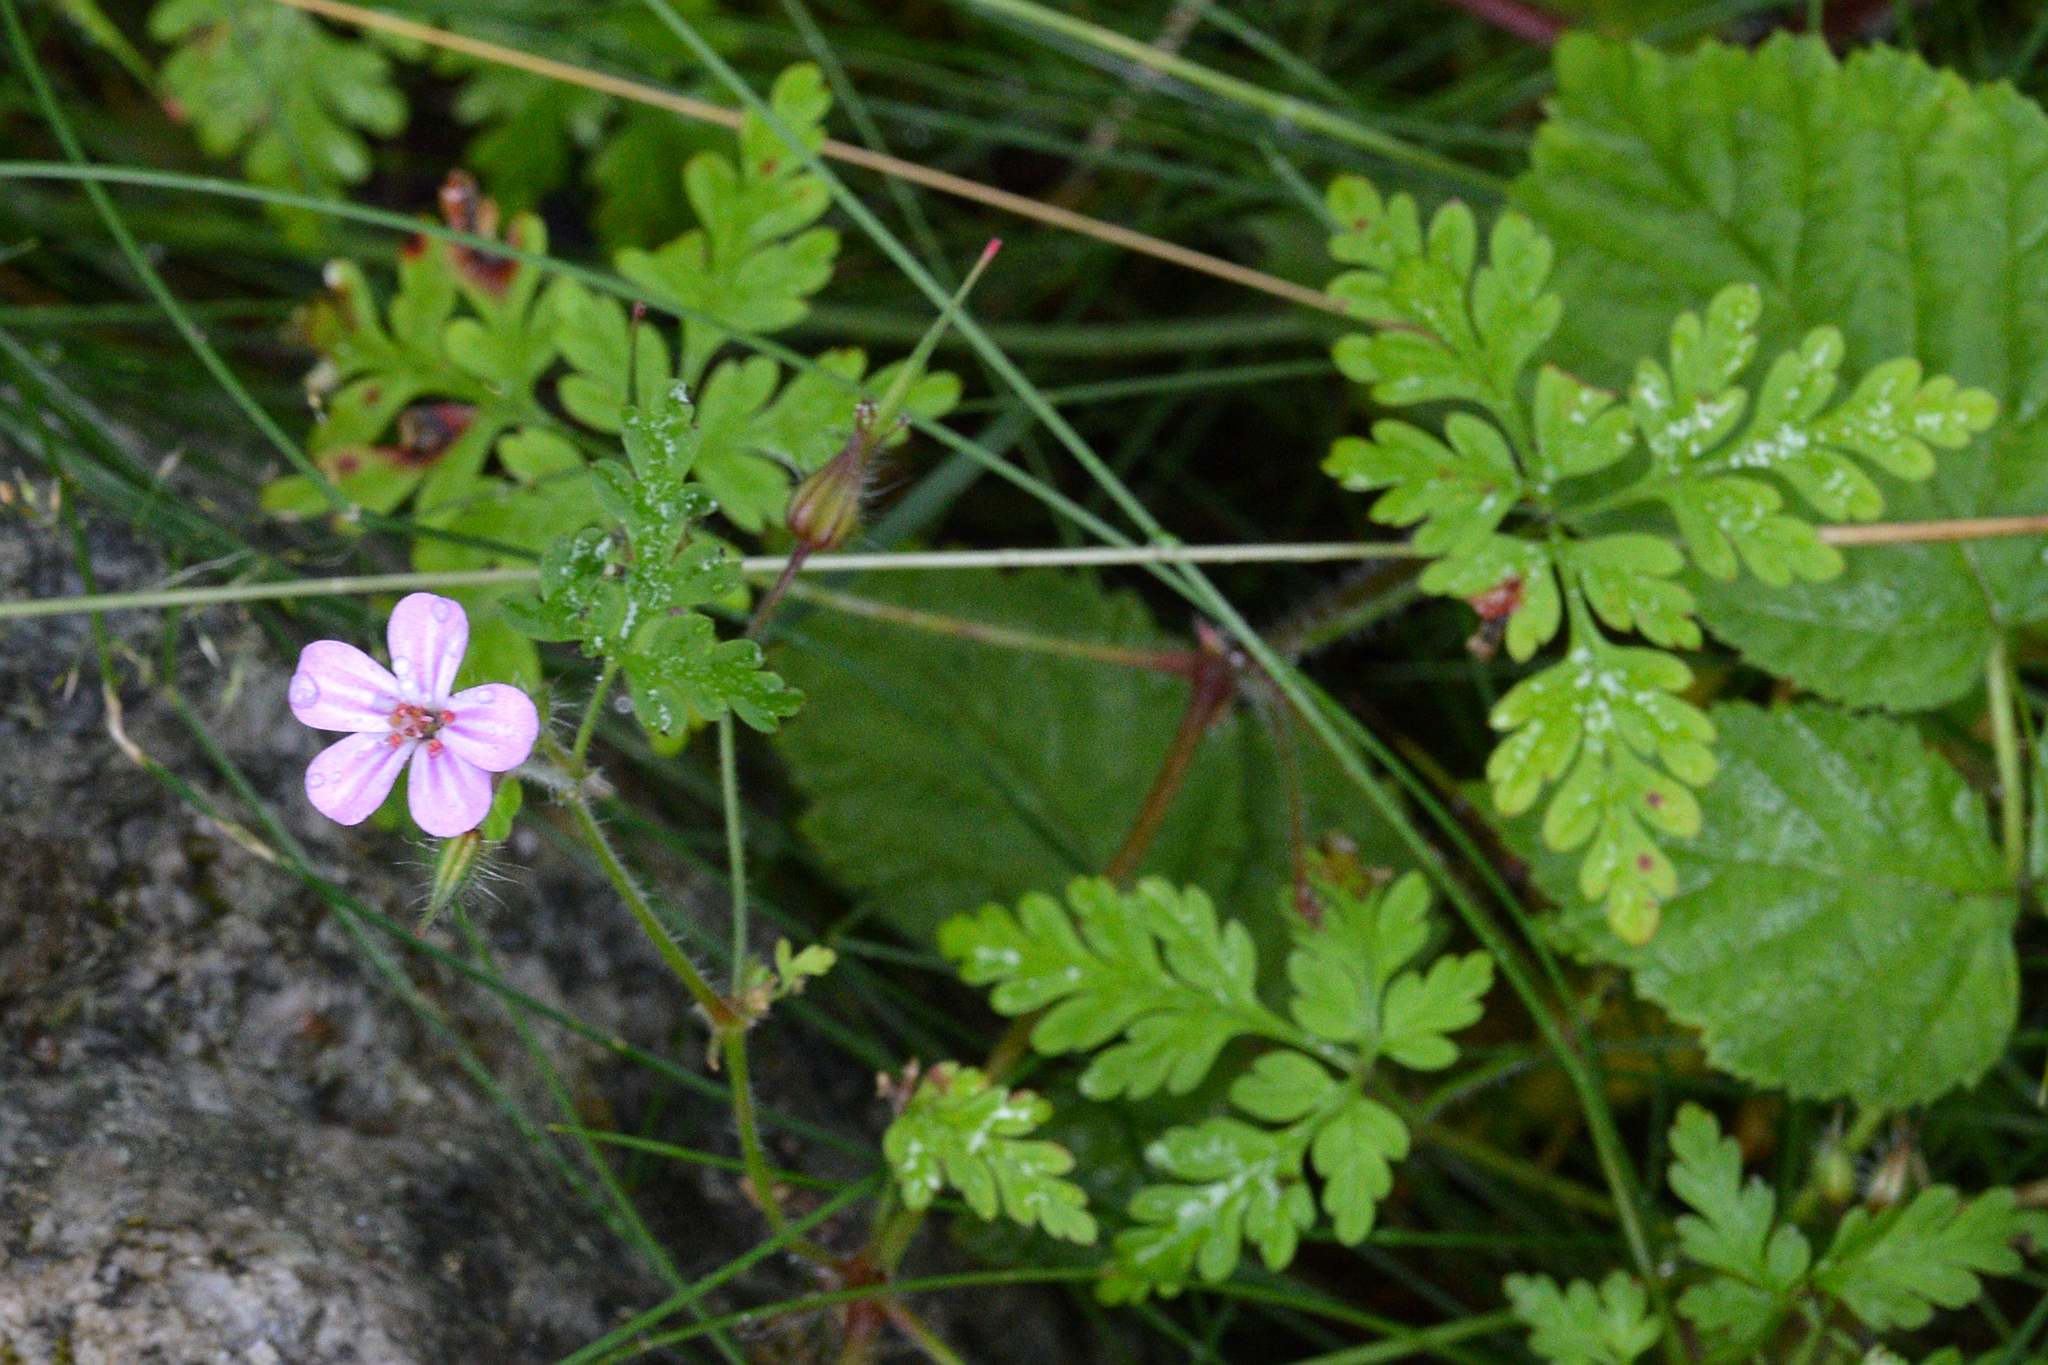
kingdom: Plantae
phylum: Tracheophyta
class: Magnoliopsida
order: Geraniales
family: Geraniaceae
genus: Geranium
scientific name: Geranium robertianum
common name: Herb-robert
